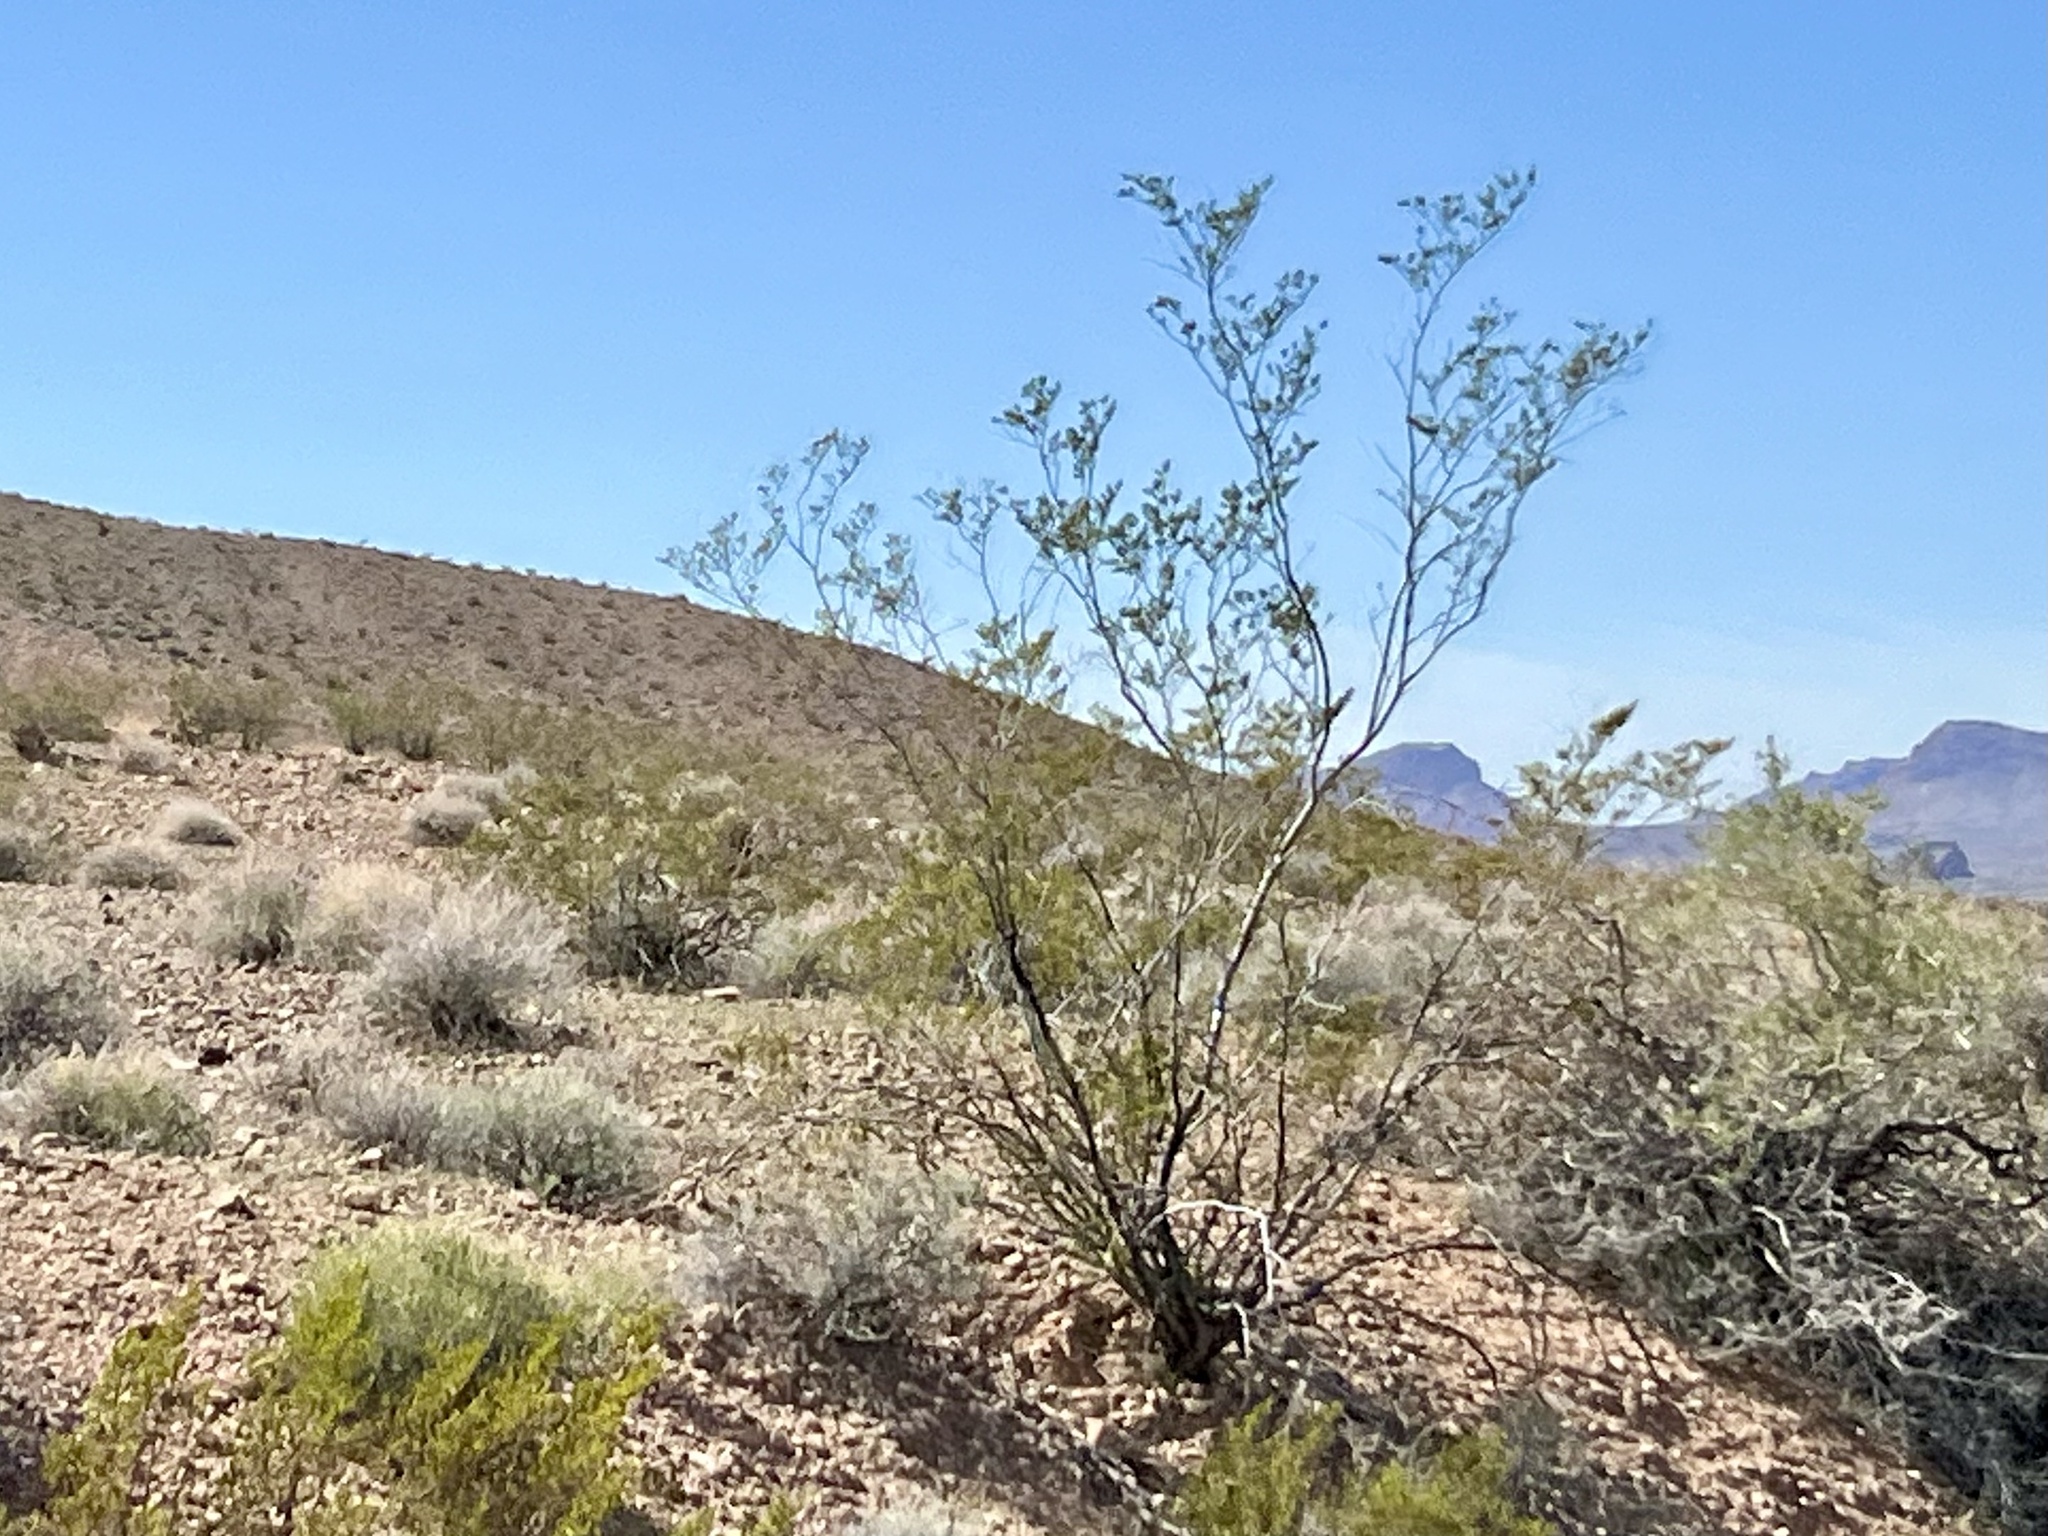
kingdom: Plantae
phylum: Tracheophyta
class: Magnoliopsida
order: Zygophyllales
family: Zygophyllaceae
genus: Larrea
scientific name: Larrea tridentata
